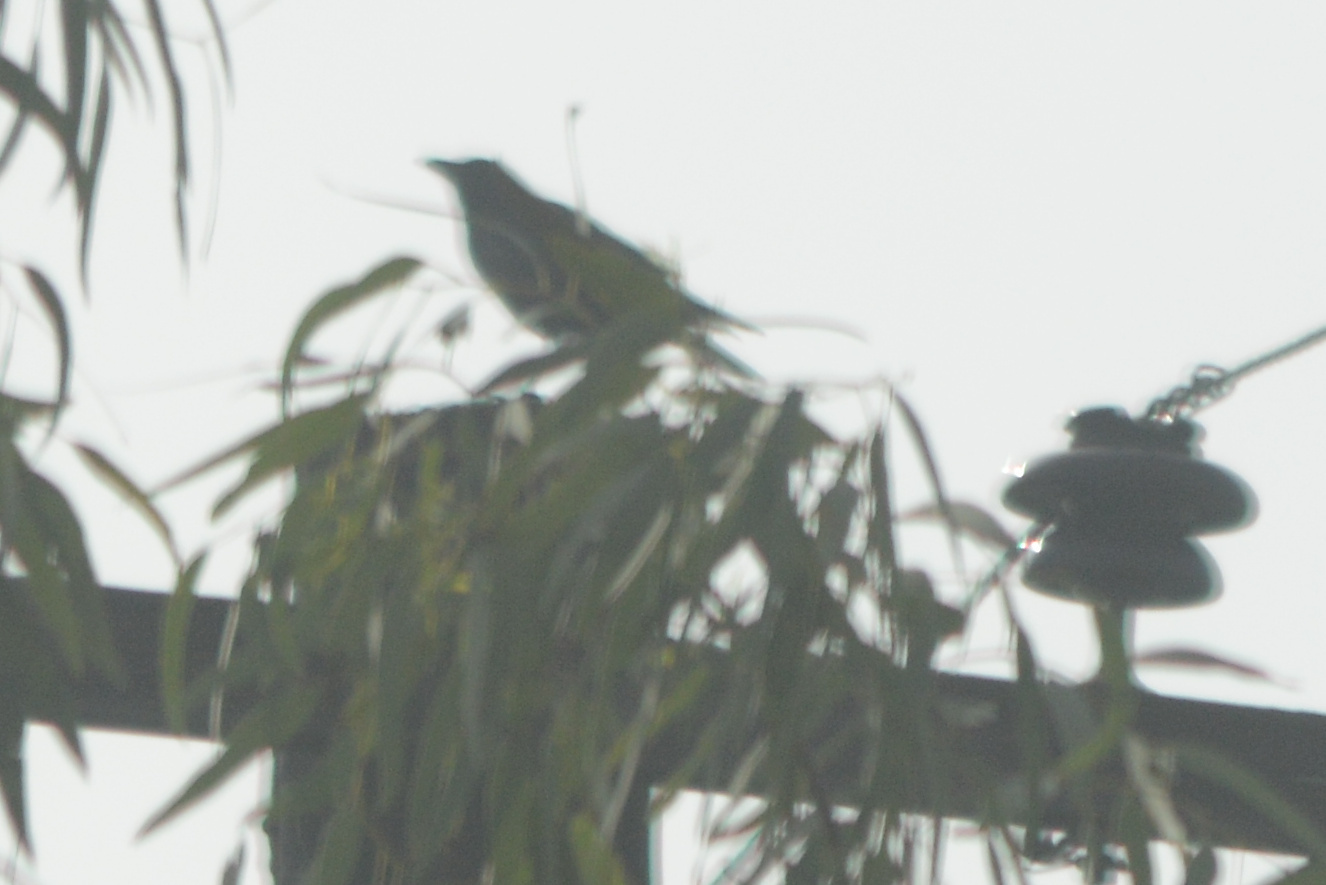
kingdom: Animalia
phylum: Chordata
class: Aves
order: Passeriformes
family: Corvidae
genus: Corvus
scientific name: Corvus brachyrhynchos
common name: American crow
